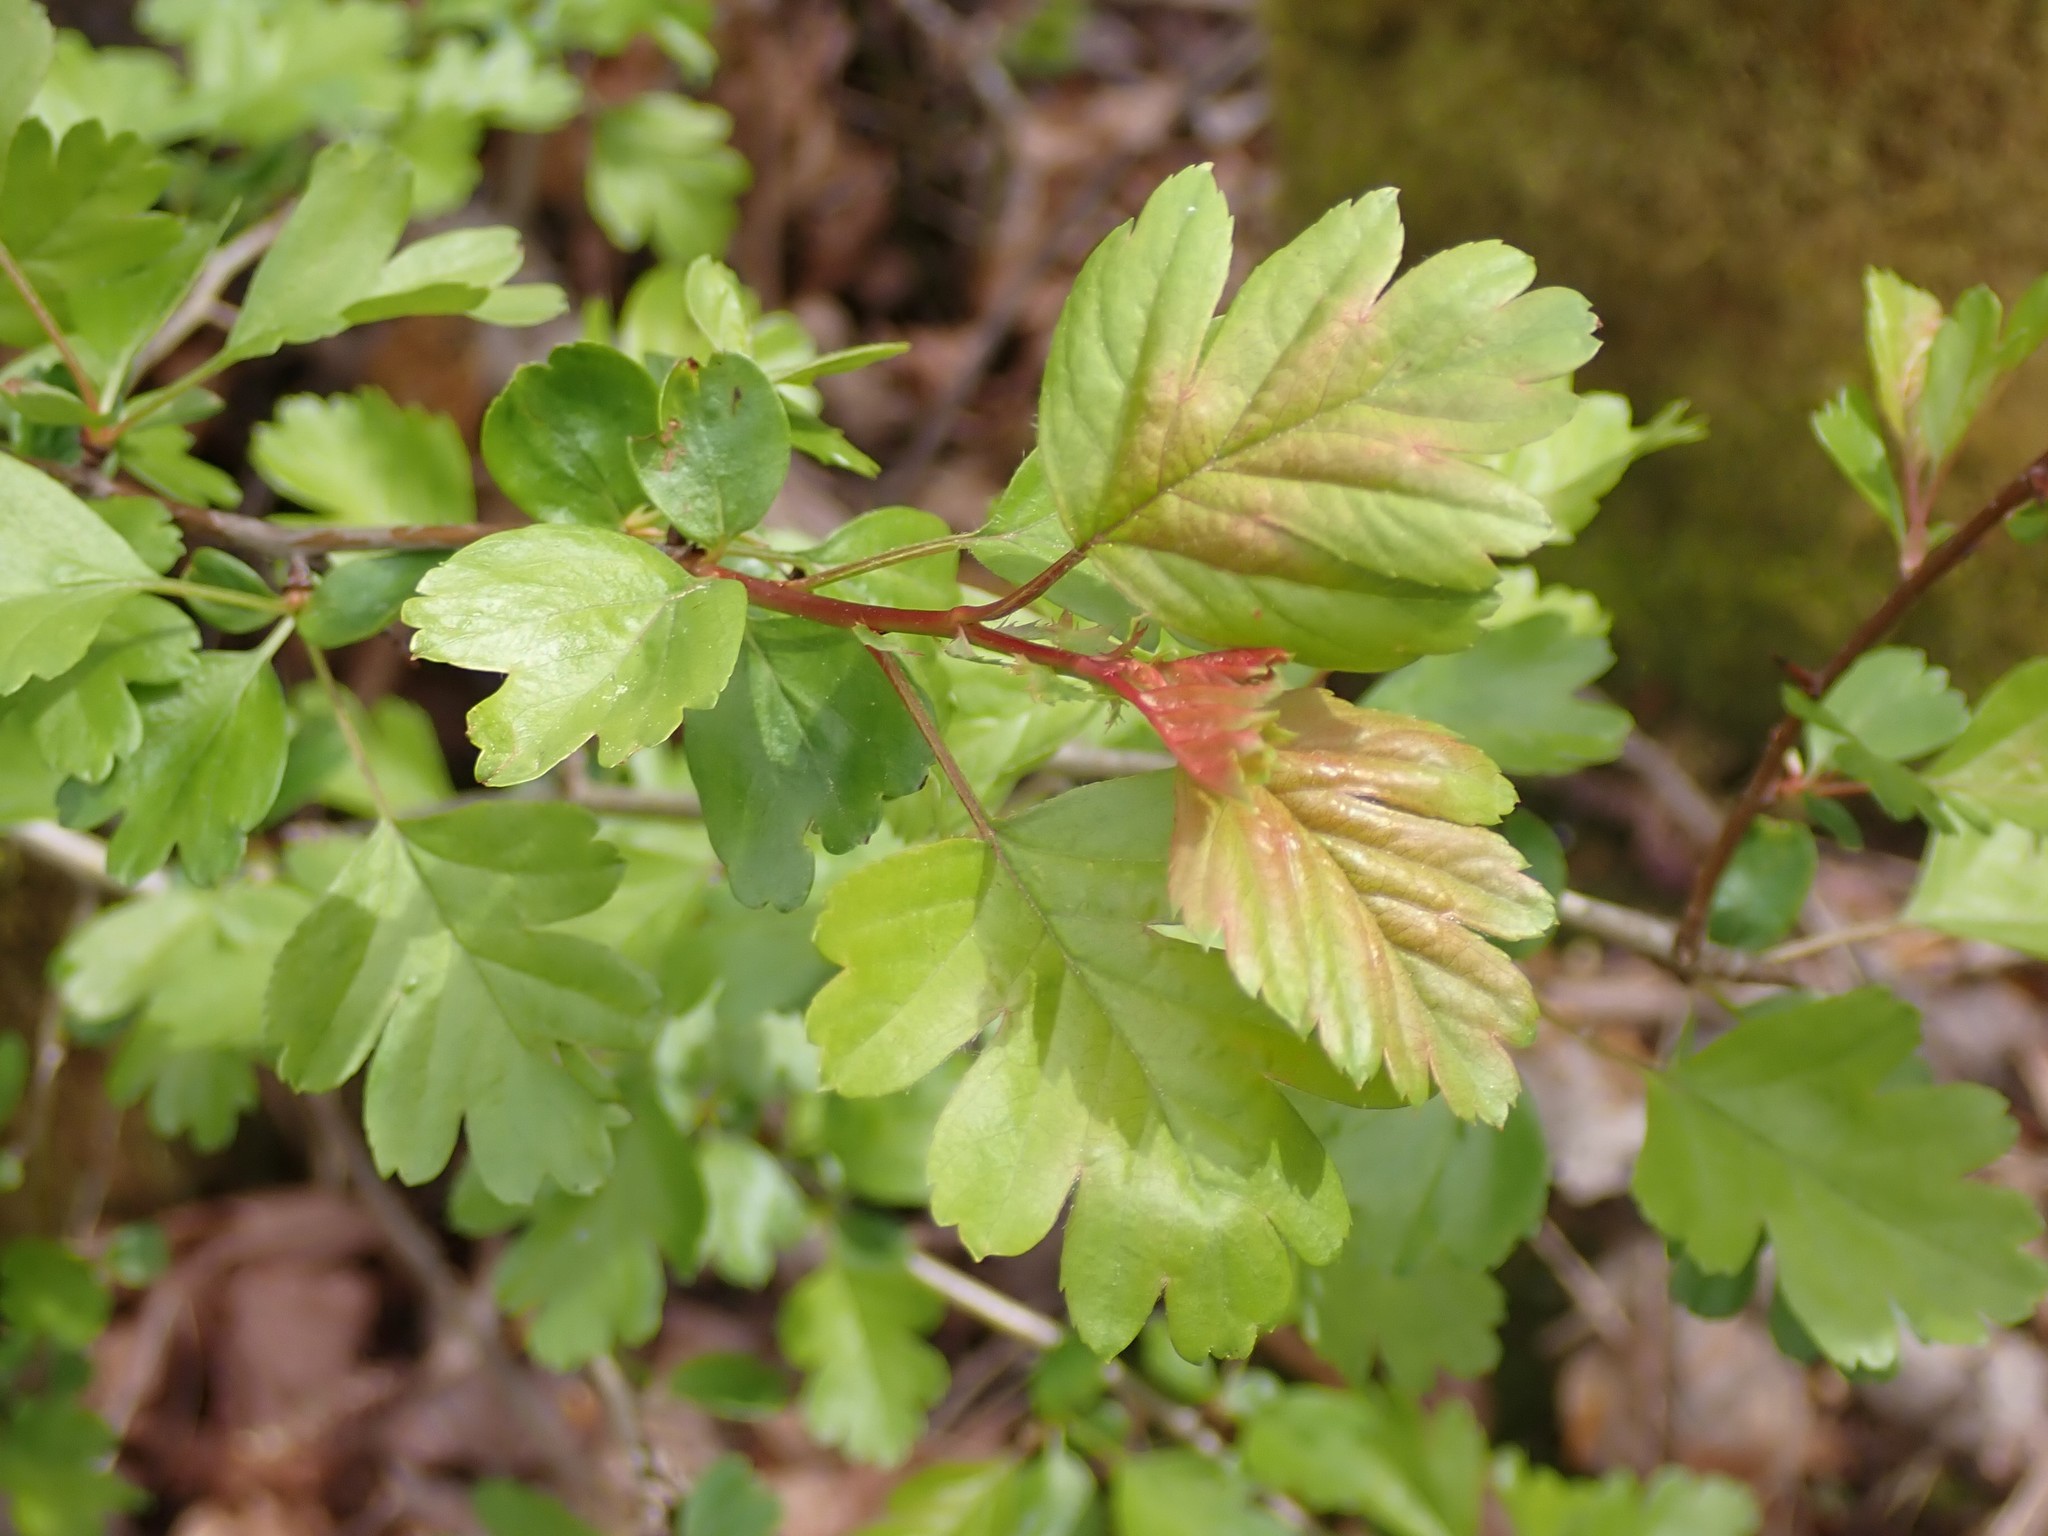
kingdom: Plantae
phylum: Tracheophyta
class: Magnoliopsida
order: Rosales
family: Rosaceae
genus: Crataegus
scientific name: Crataegus monogyna
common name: Hawthorn
